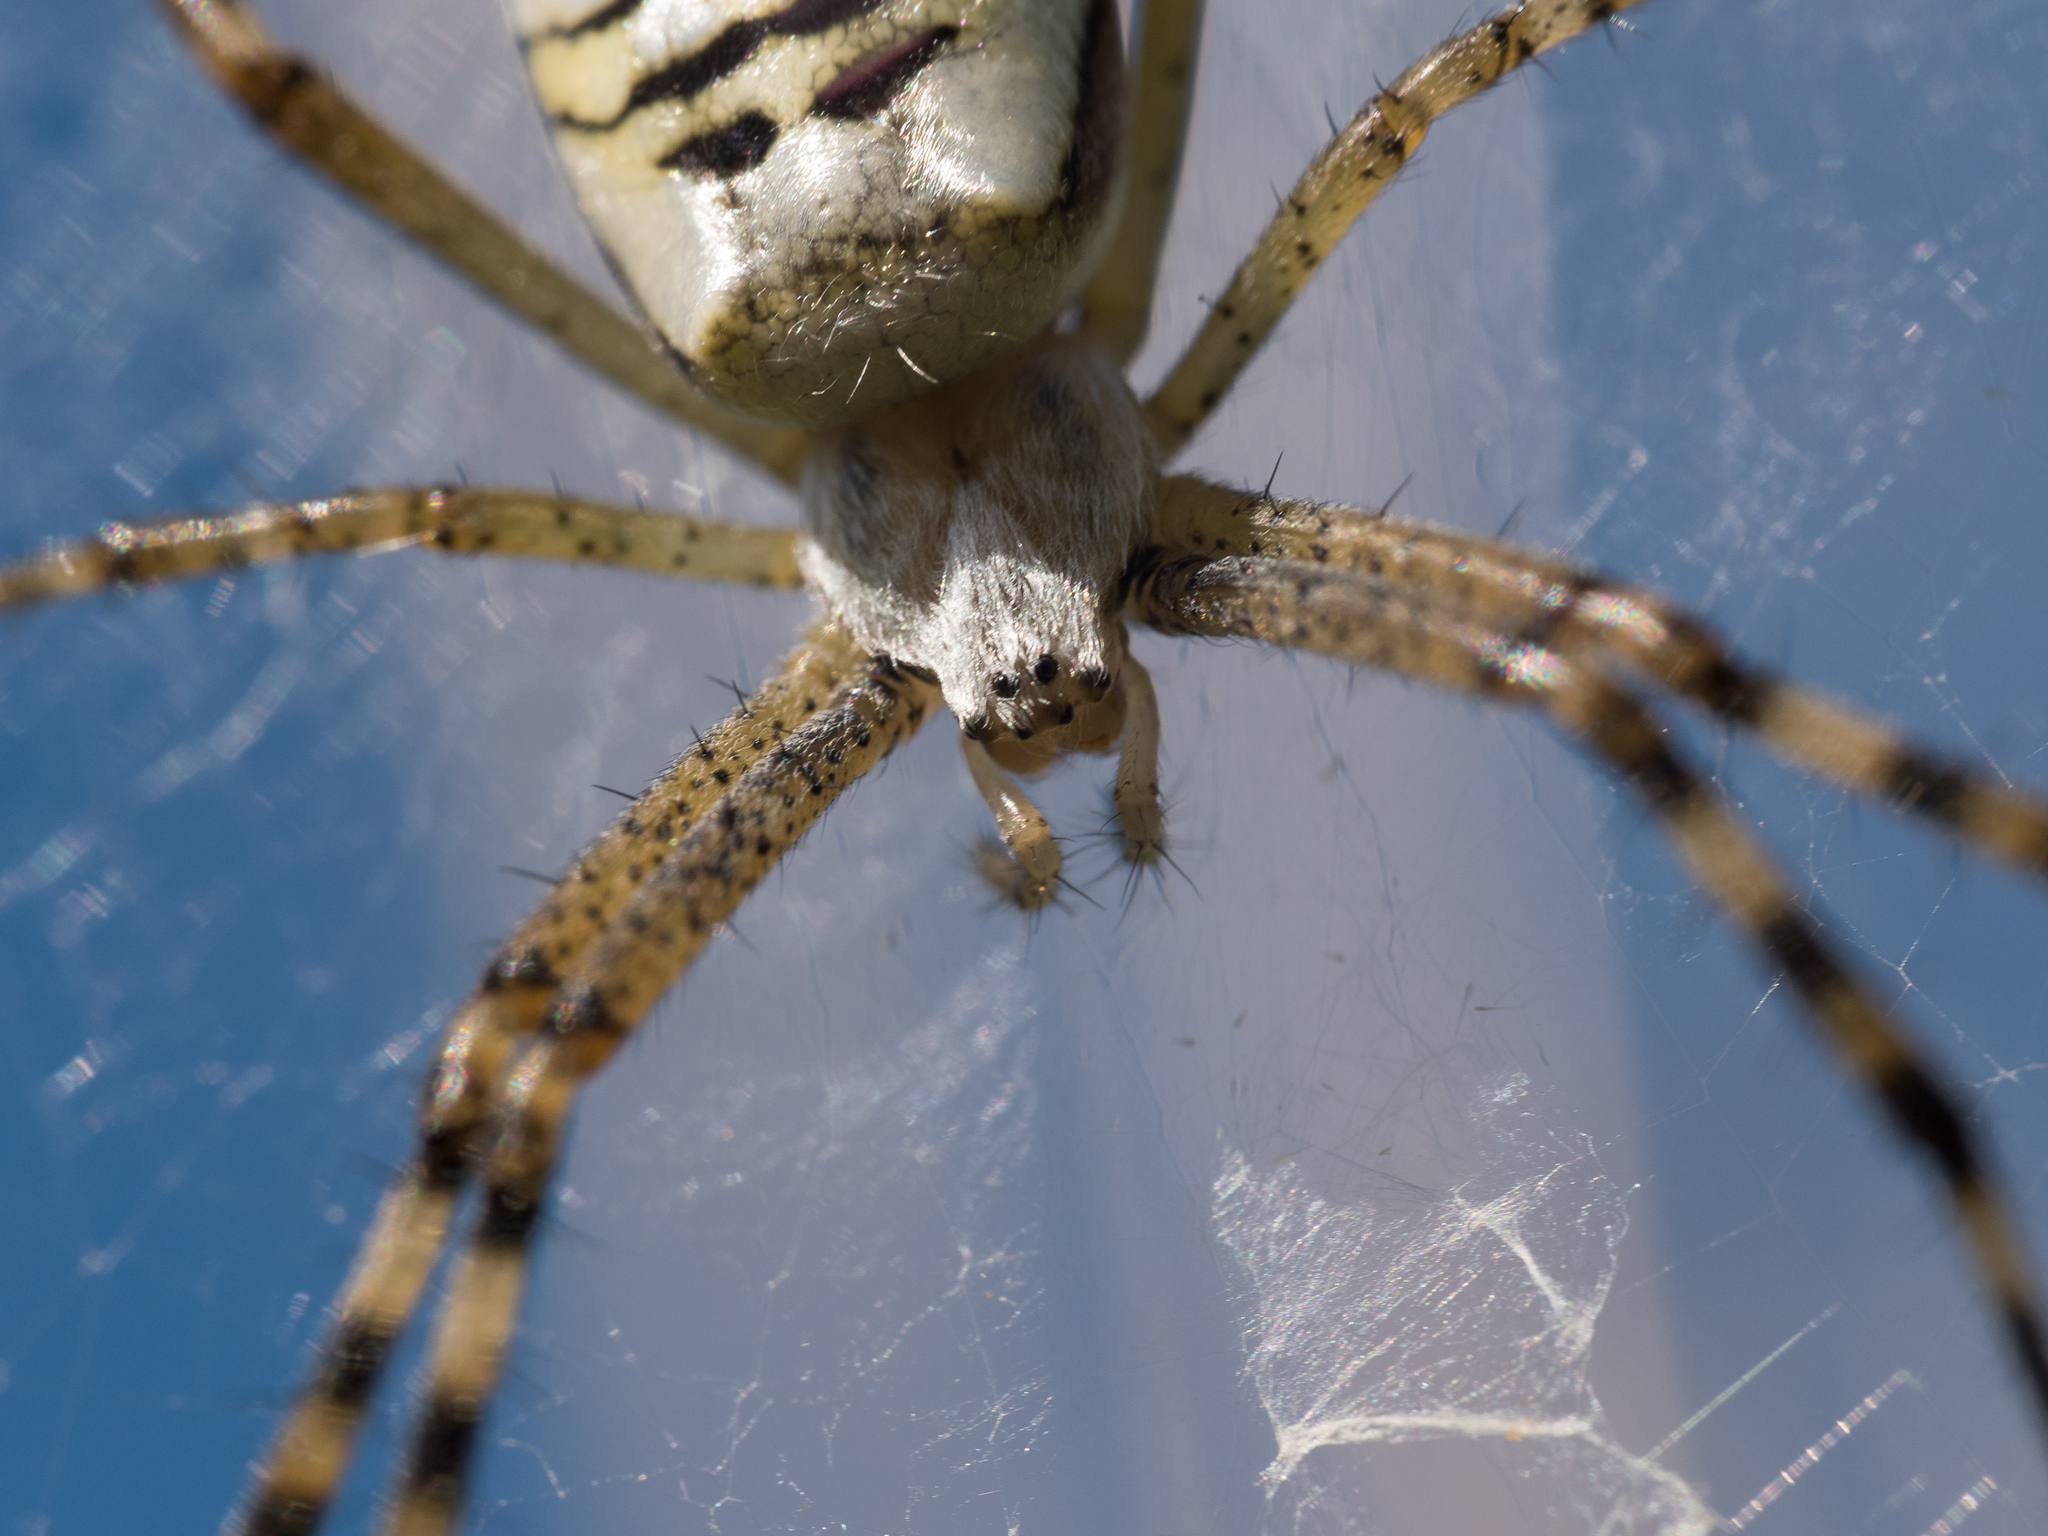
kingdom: Animalia
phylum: Arthropoda
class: Arachnida
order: Araneae
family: Araneidae
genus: Argiope
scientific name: Argiope bruennichi
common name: Wasp spider
